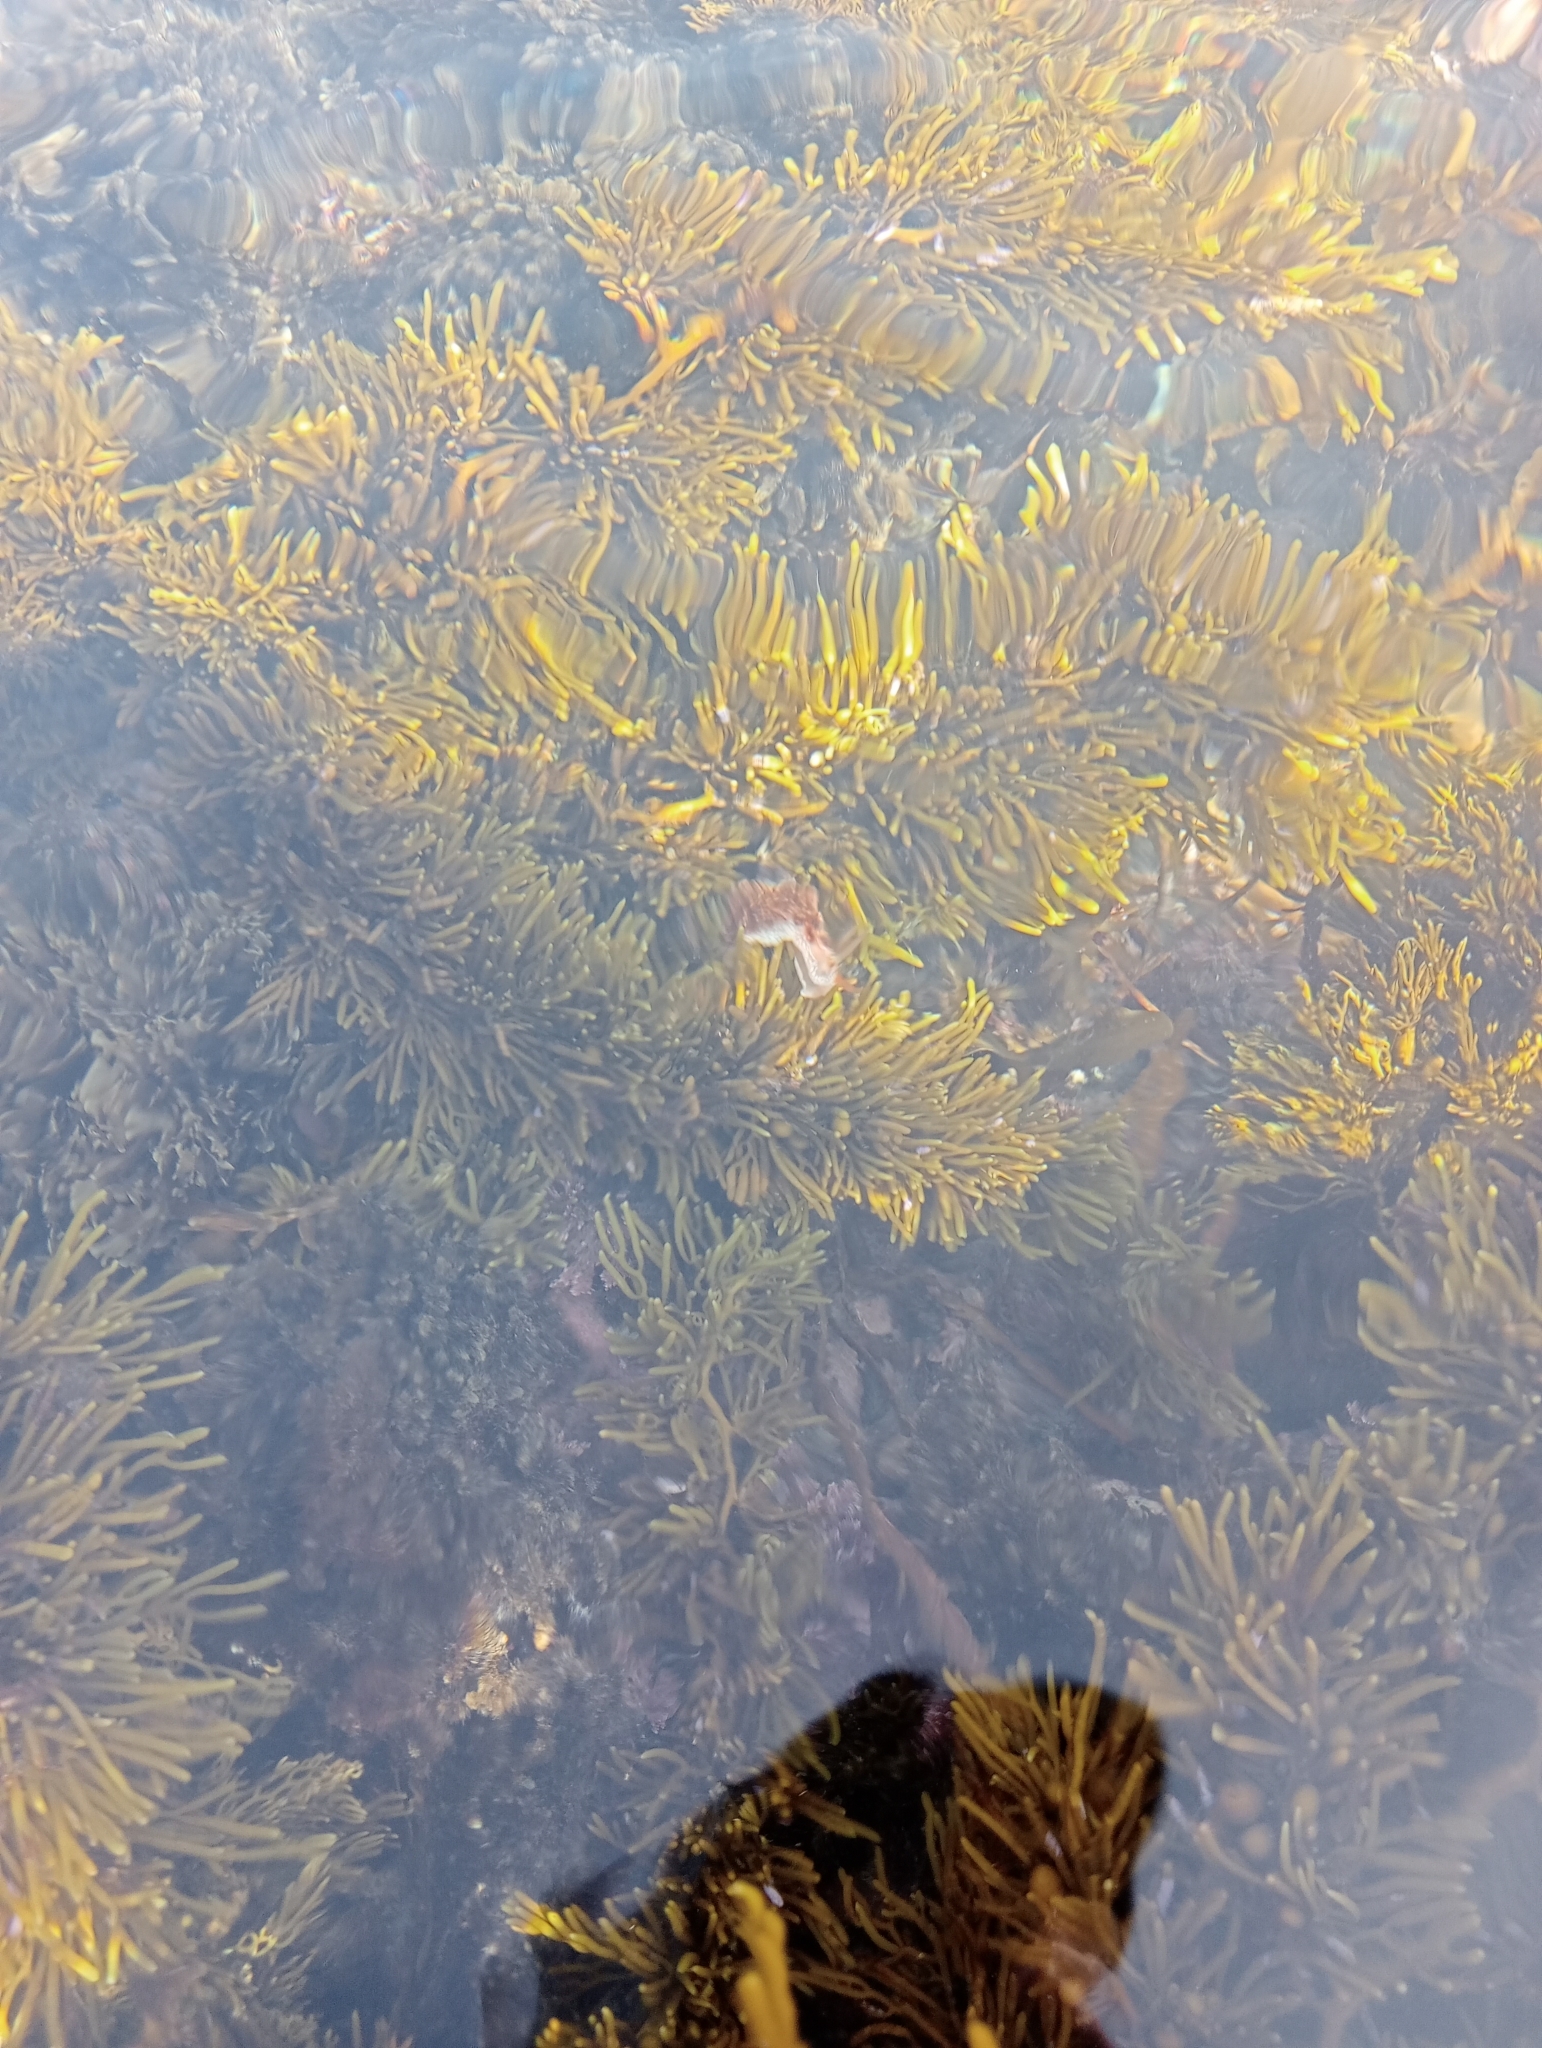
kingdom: Animalia
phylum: Mollusca
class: Gastropoda
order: Nudibranchia
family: Aeolidiidae
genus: Baeolidia
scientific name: Baeolidia australis
